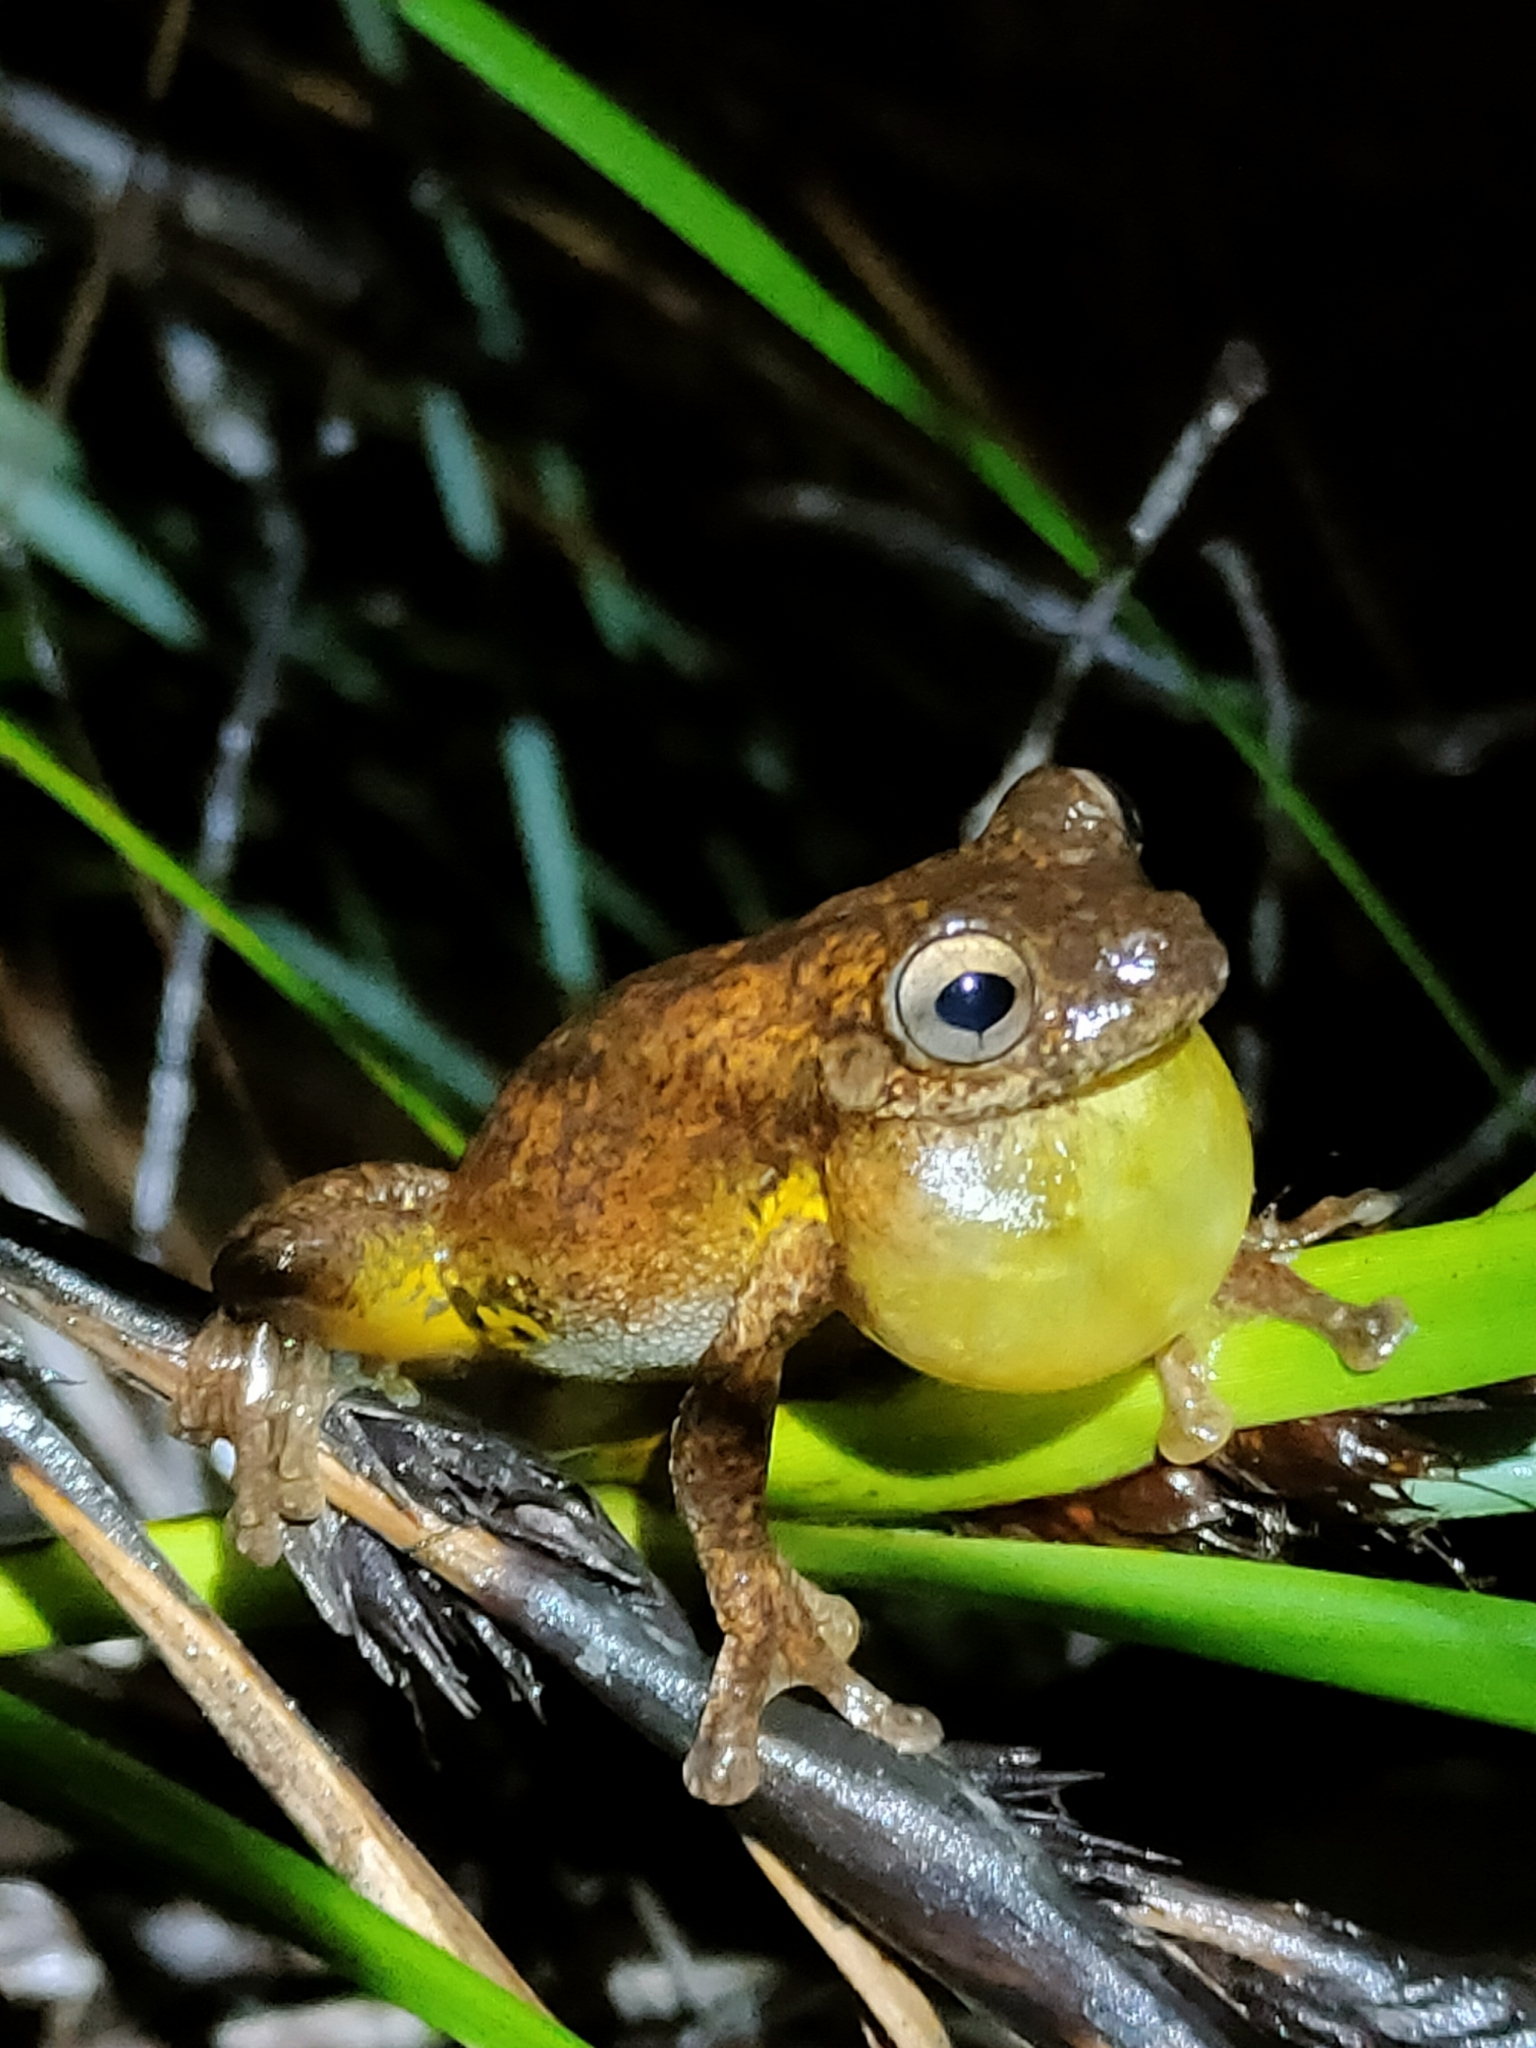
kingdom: Animalia
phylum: Chordata
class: Amphibia
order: Anura
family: Pelodryadidae
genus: Litoria
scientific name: Litoria tyleri
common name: Laughing tree frog
